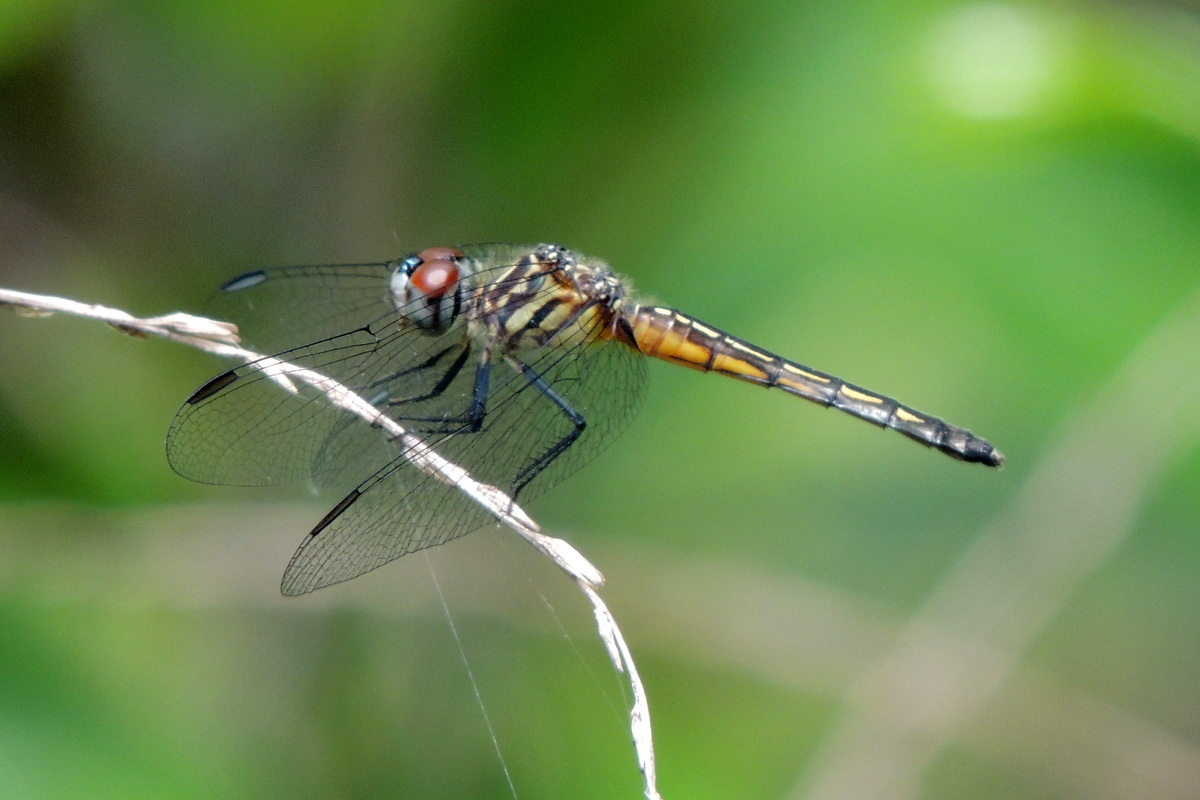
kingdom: Animalia
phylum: Arthropoda
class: Insecta
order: Odonata
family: Libellulidae
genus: Pachydiplax
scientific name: Pachydiplax longipennis
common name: Blue dasher
